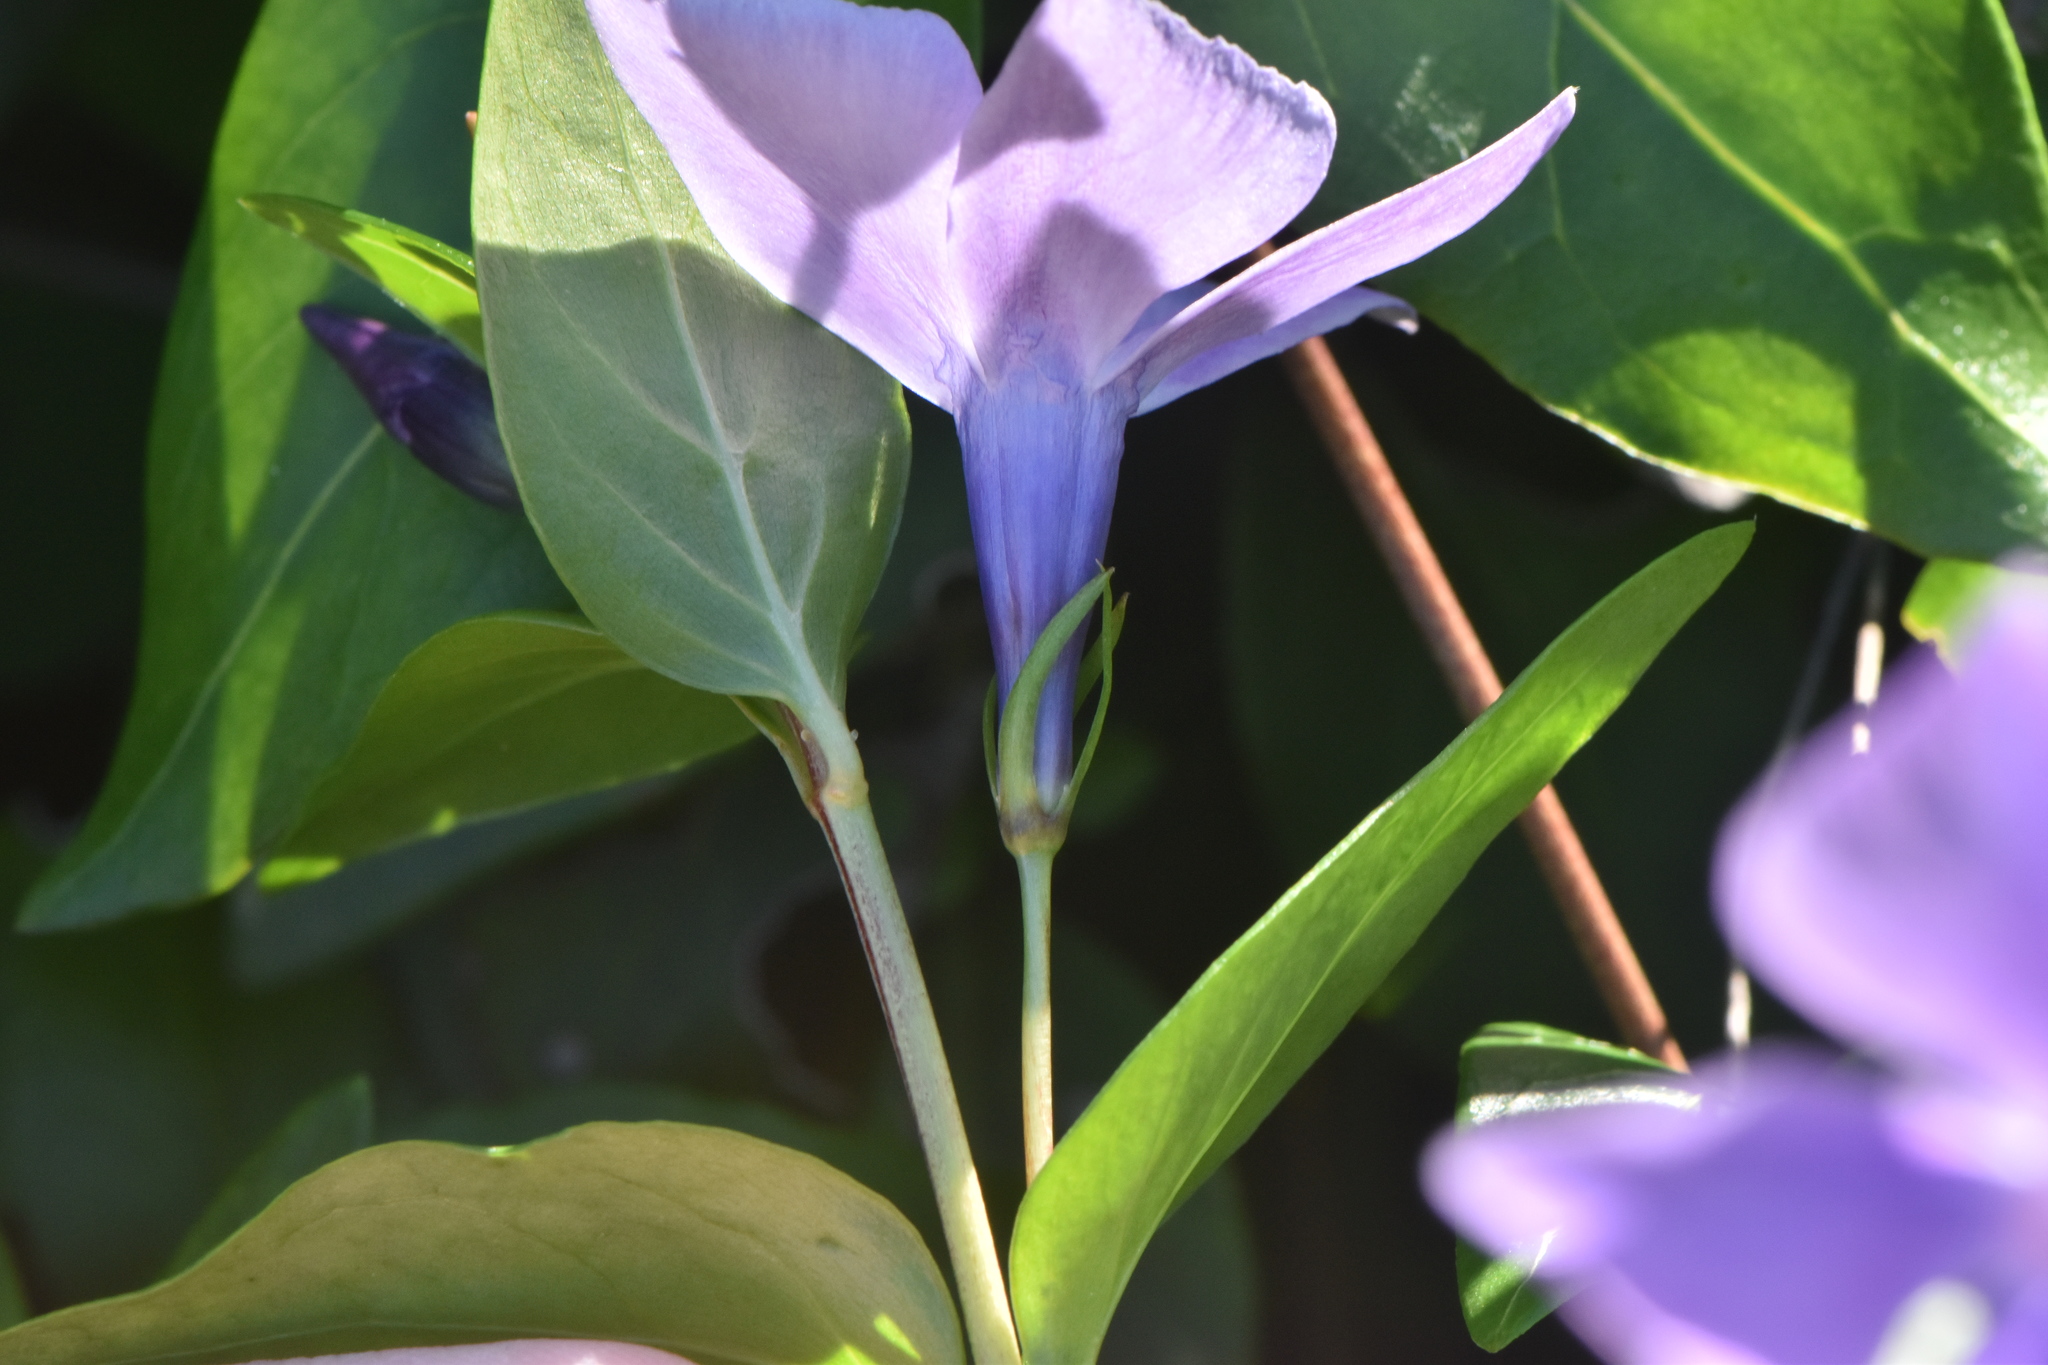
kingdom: Plantae
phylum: Tracheophyta
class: Magnoliopsida
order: Gentianales
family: Apocynaceae
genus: Vinca
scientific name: Vinca difformis
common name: Intermediate periwinkle
